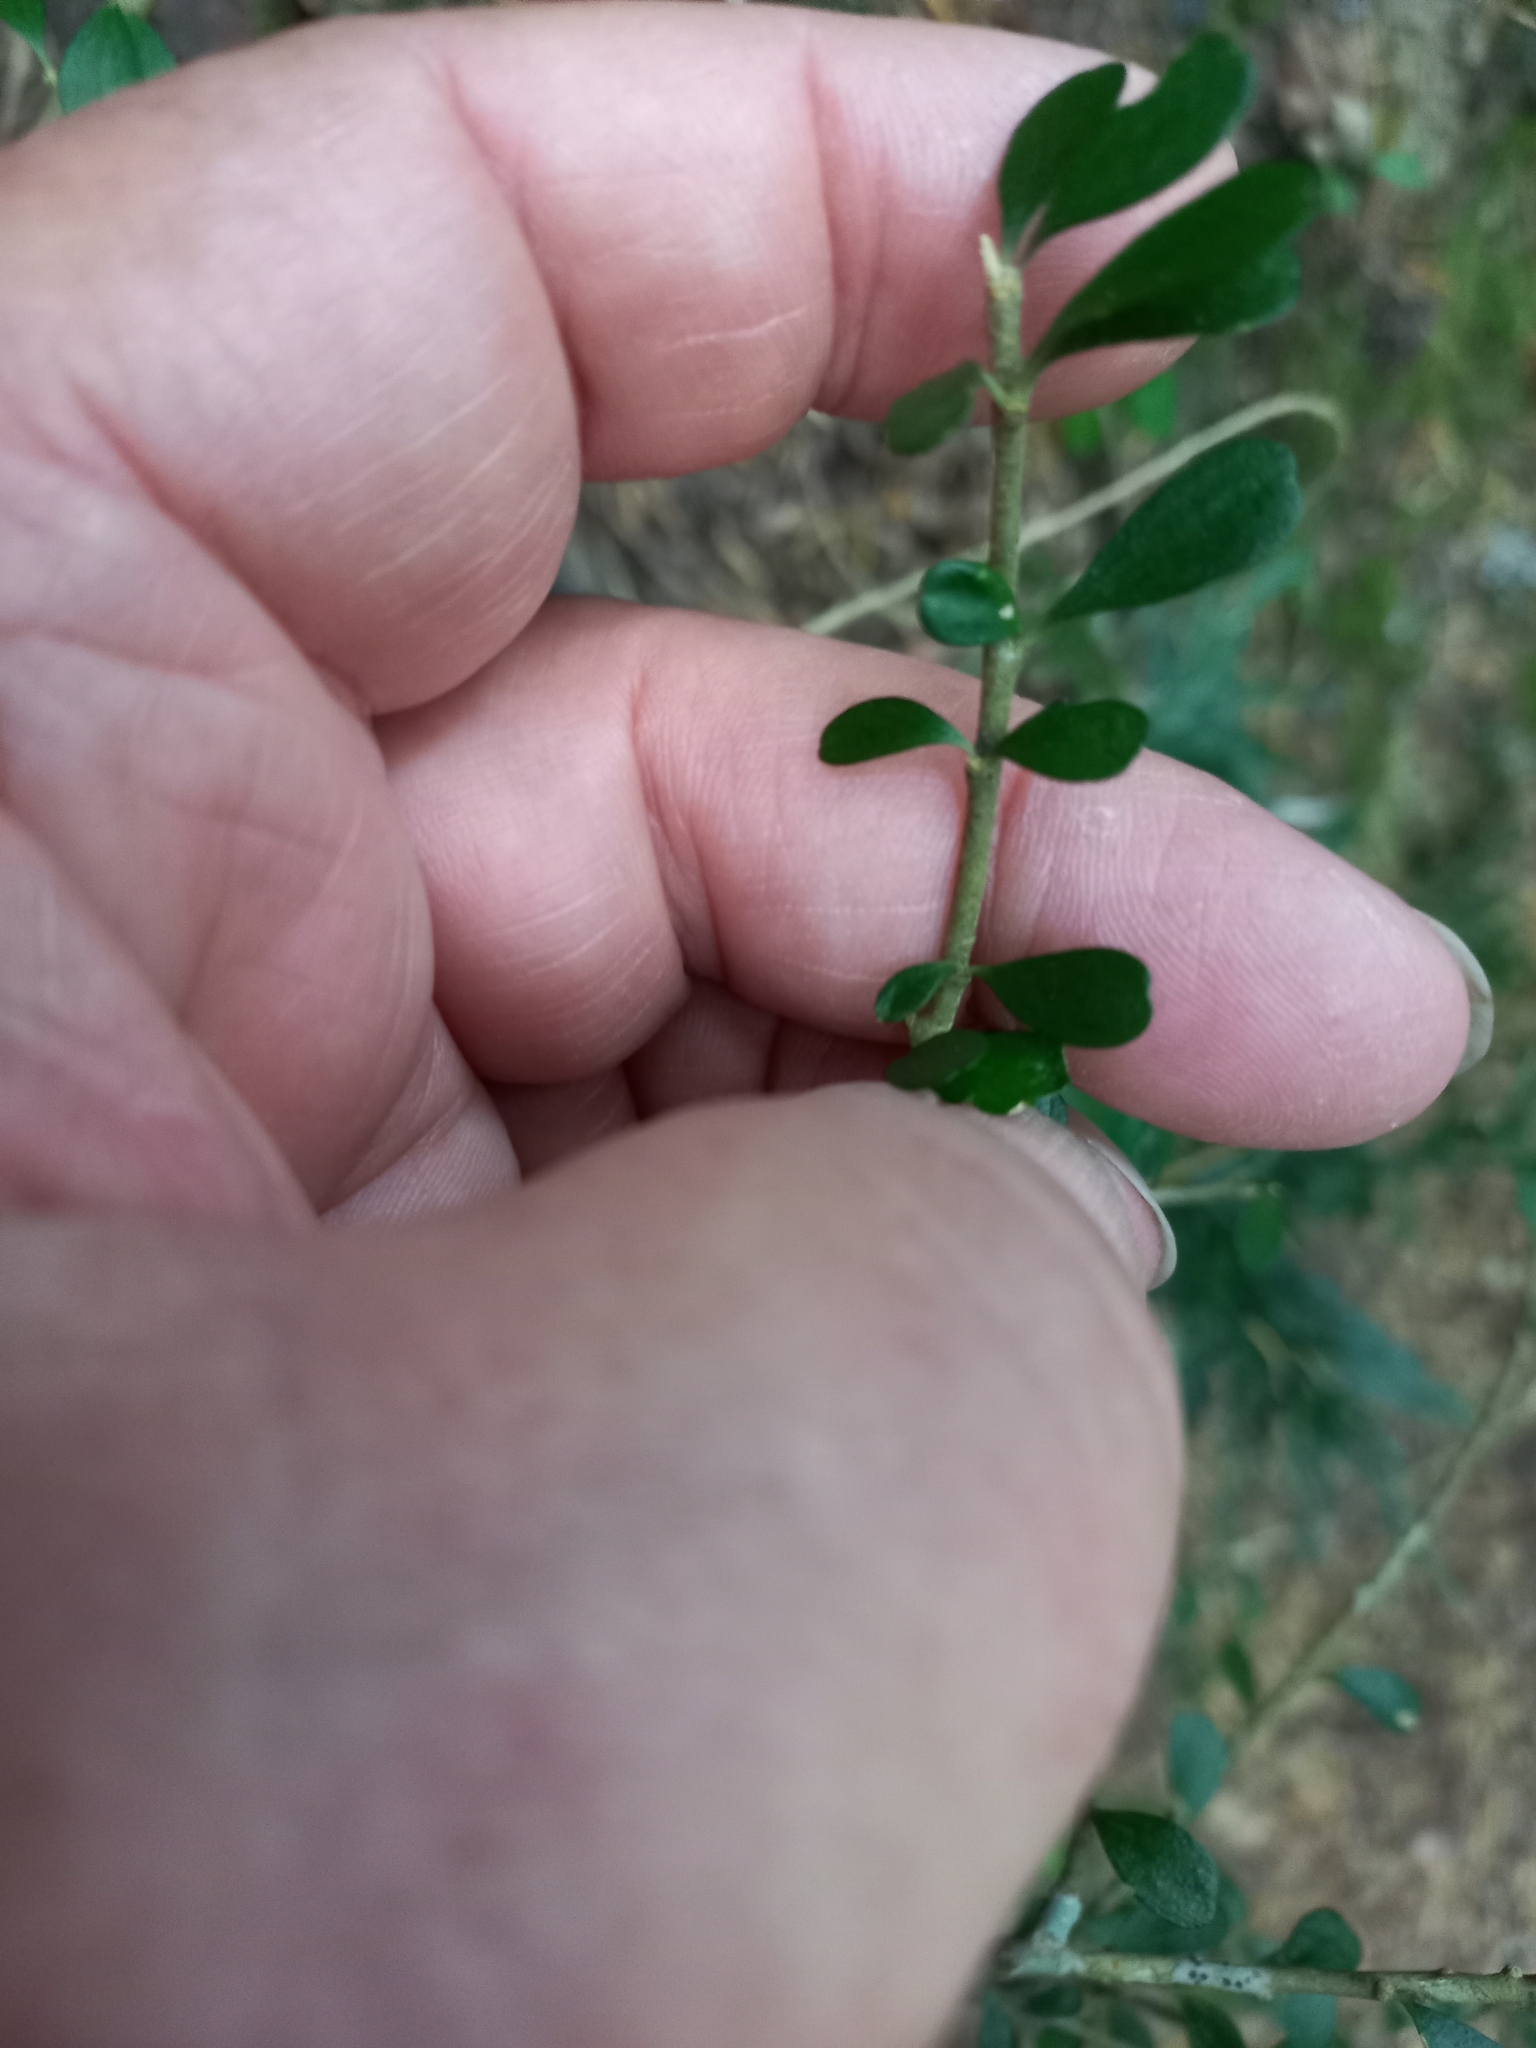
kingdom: Plantae
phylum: Tracheophyta
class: Magnoliopsida
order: Malpighiales
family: Violaceae
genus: Melicytus
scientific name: Melicytus alpinus
